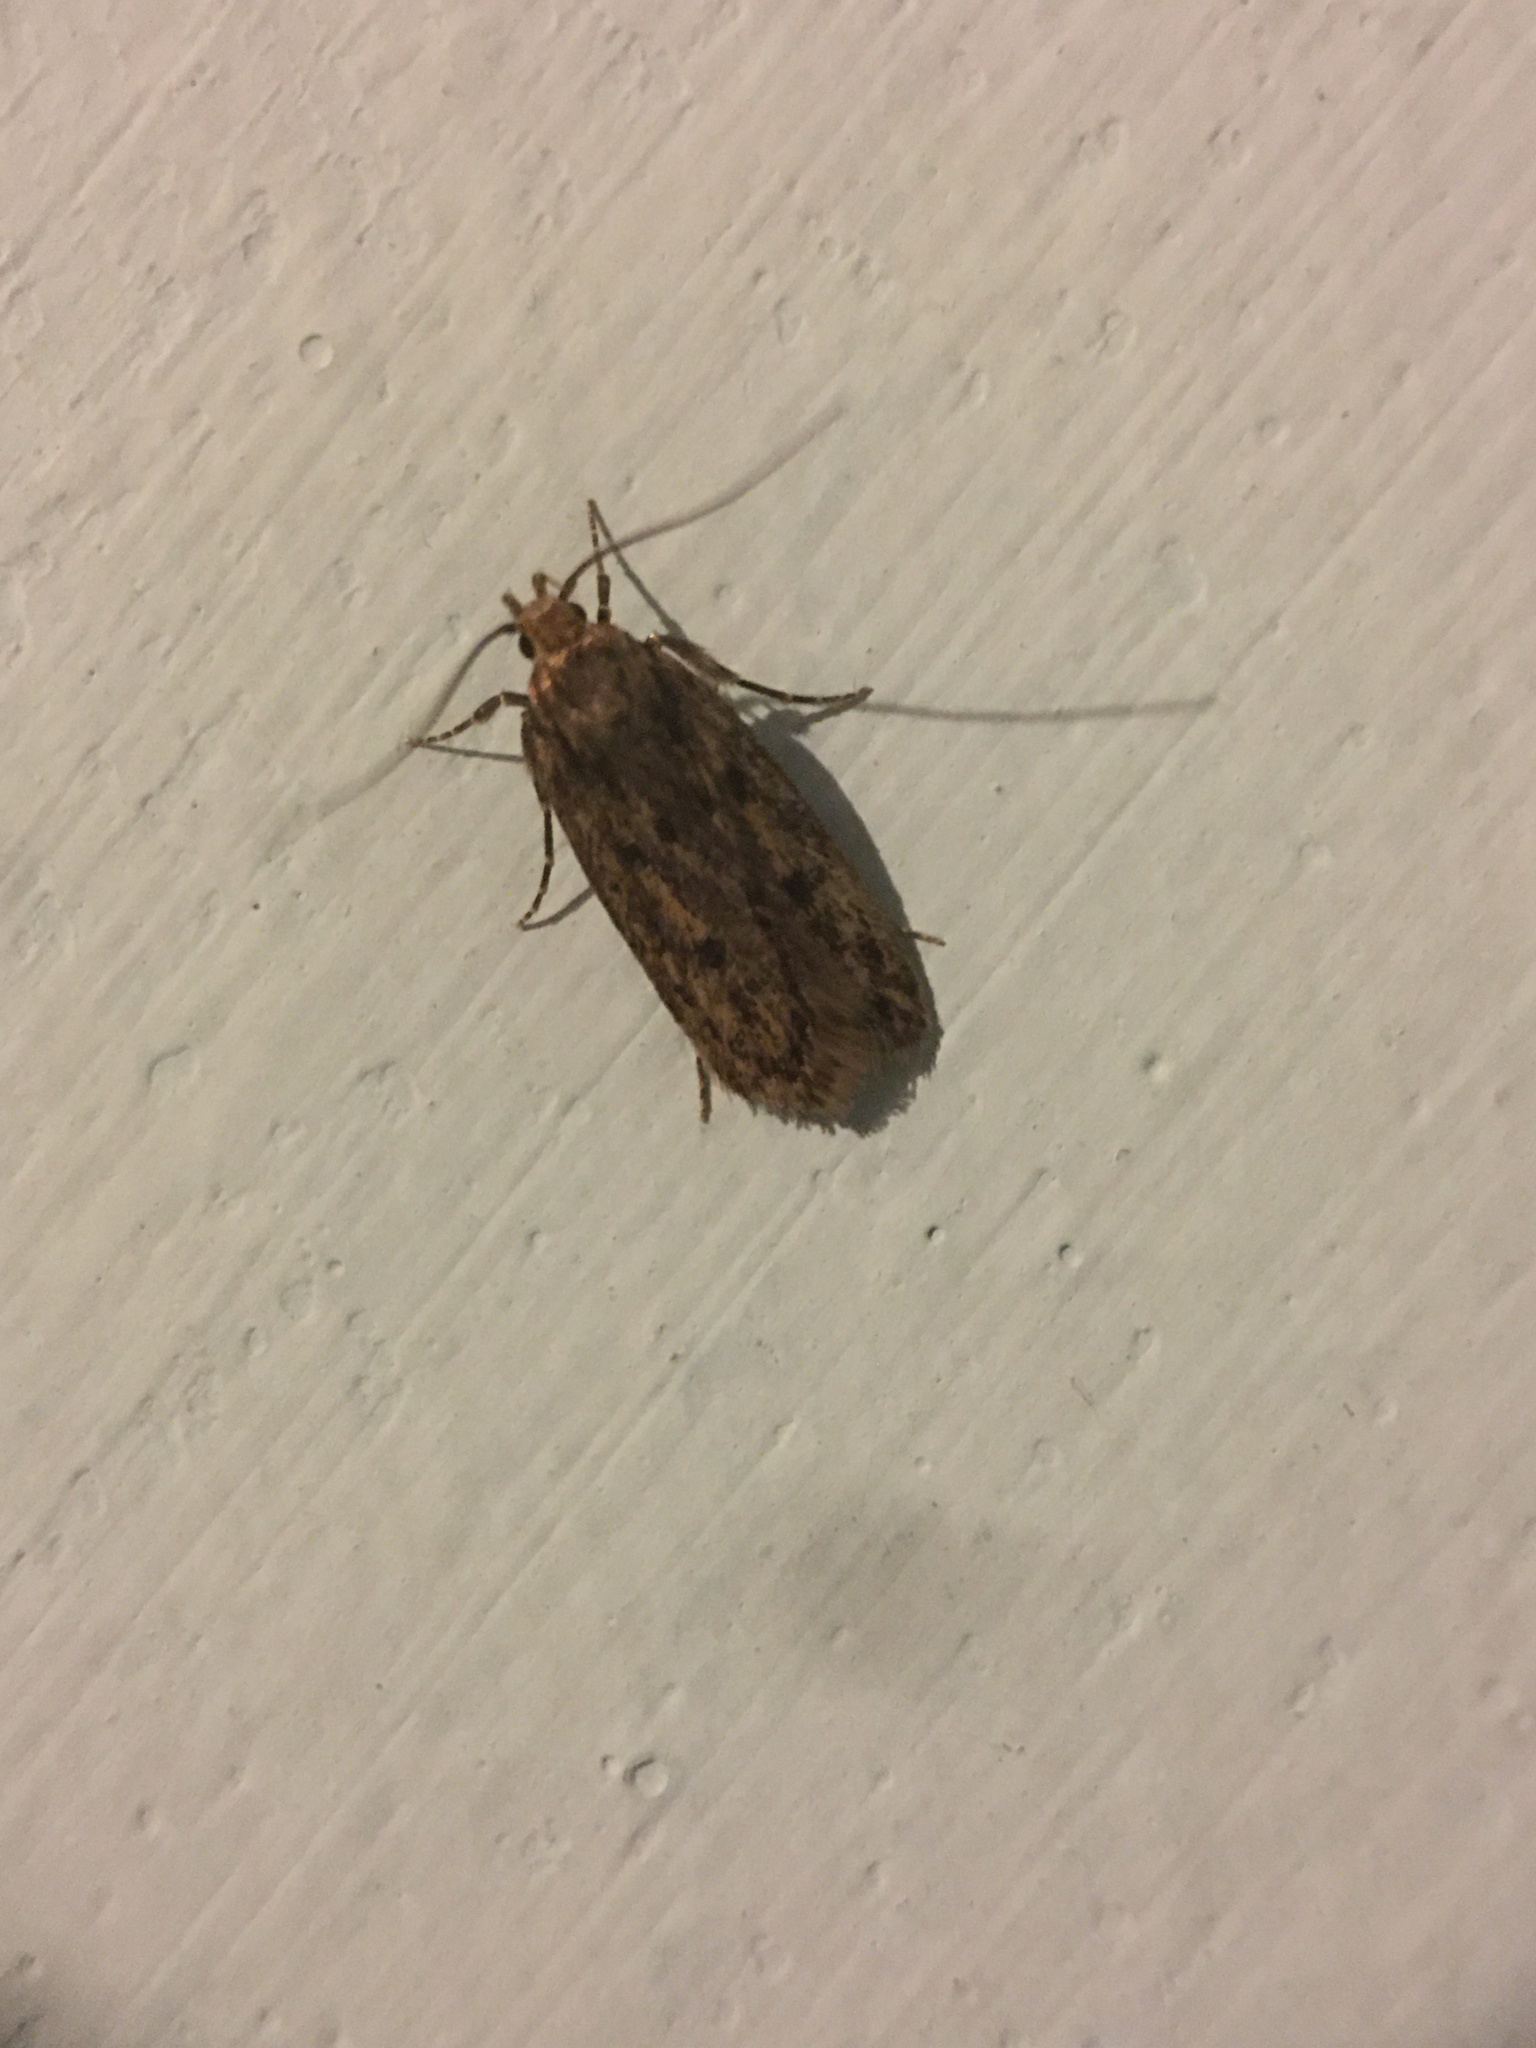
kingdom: Animalia
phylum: Arthropoda
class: Insecta
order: Lepidoptera
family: Oecophoridae
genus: Hofmannophila
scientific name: Hofmannophila pseudospretella
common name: Brown house moth
